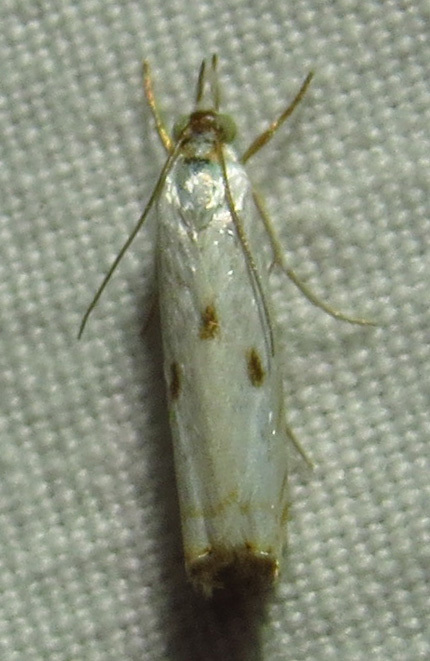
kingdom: Animalia
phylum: Arthropoda
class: Insecta
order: Lepidoptera
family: Crambidae
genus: Microcrambus
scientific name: Microcrambus biguttellus
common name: Gold-stripe grass-veneer moth
